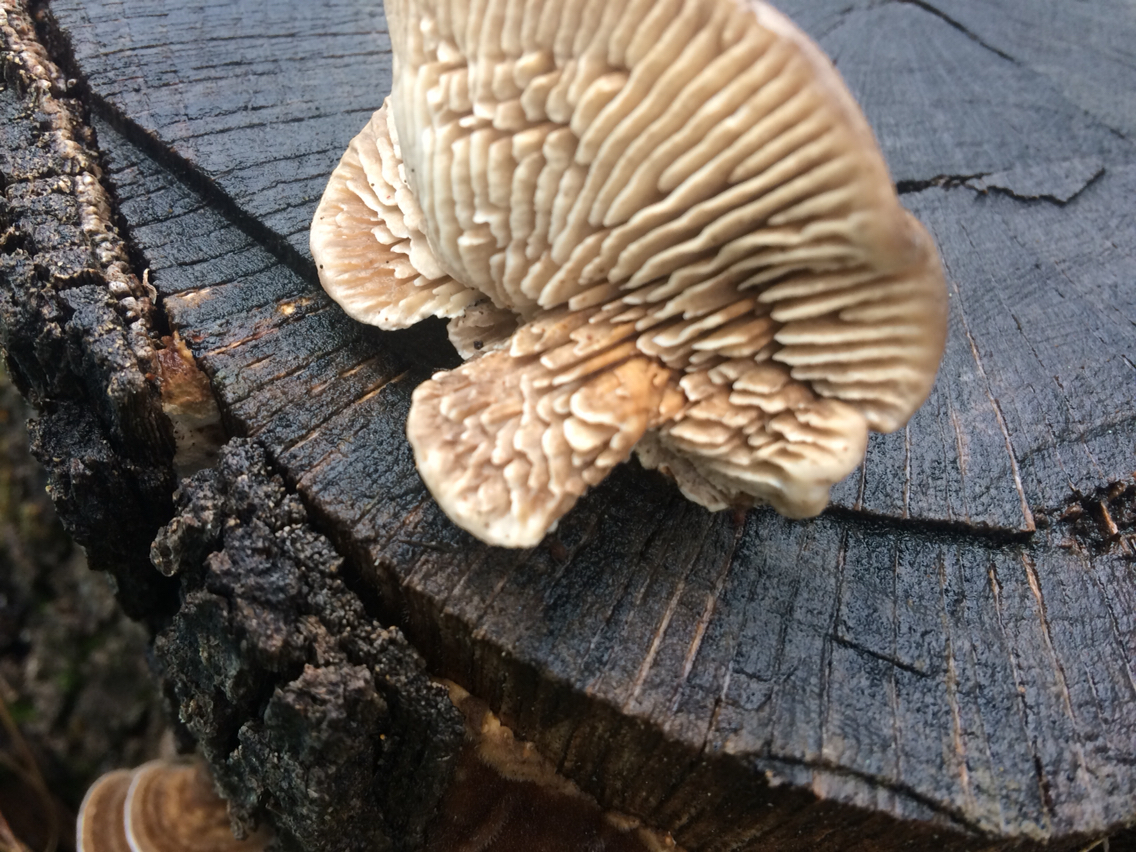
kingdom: Fungi
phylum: Basidiomycota
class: Agaricomycetes
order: Polyporales
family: Polyporaceae
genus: Lenzites
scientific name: Lenzites betulinus
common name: Birch mazegill
